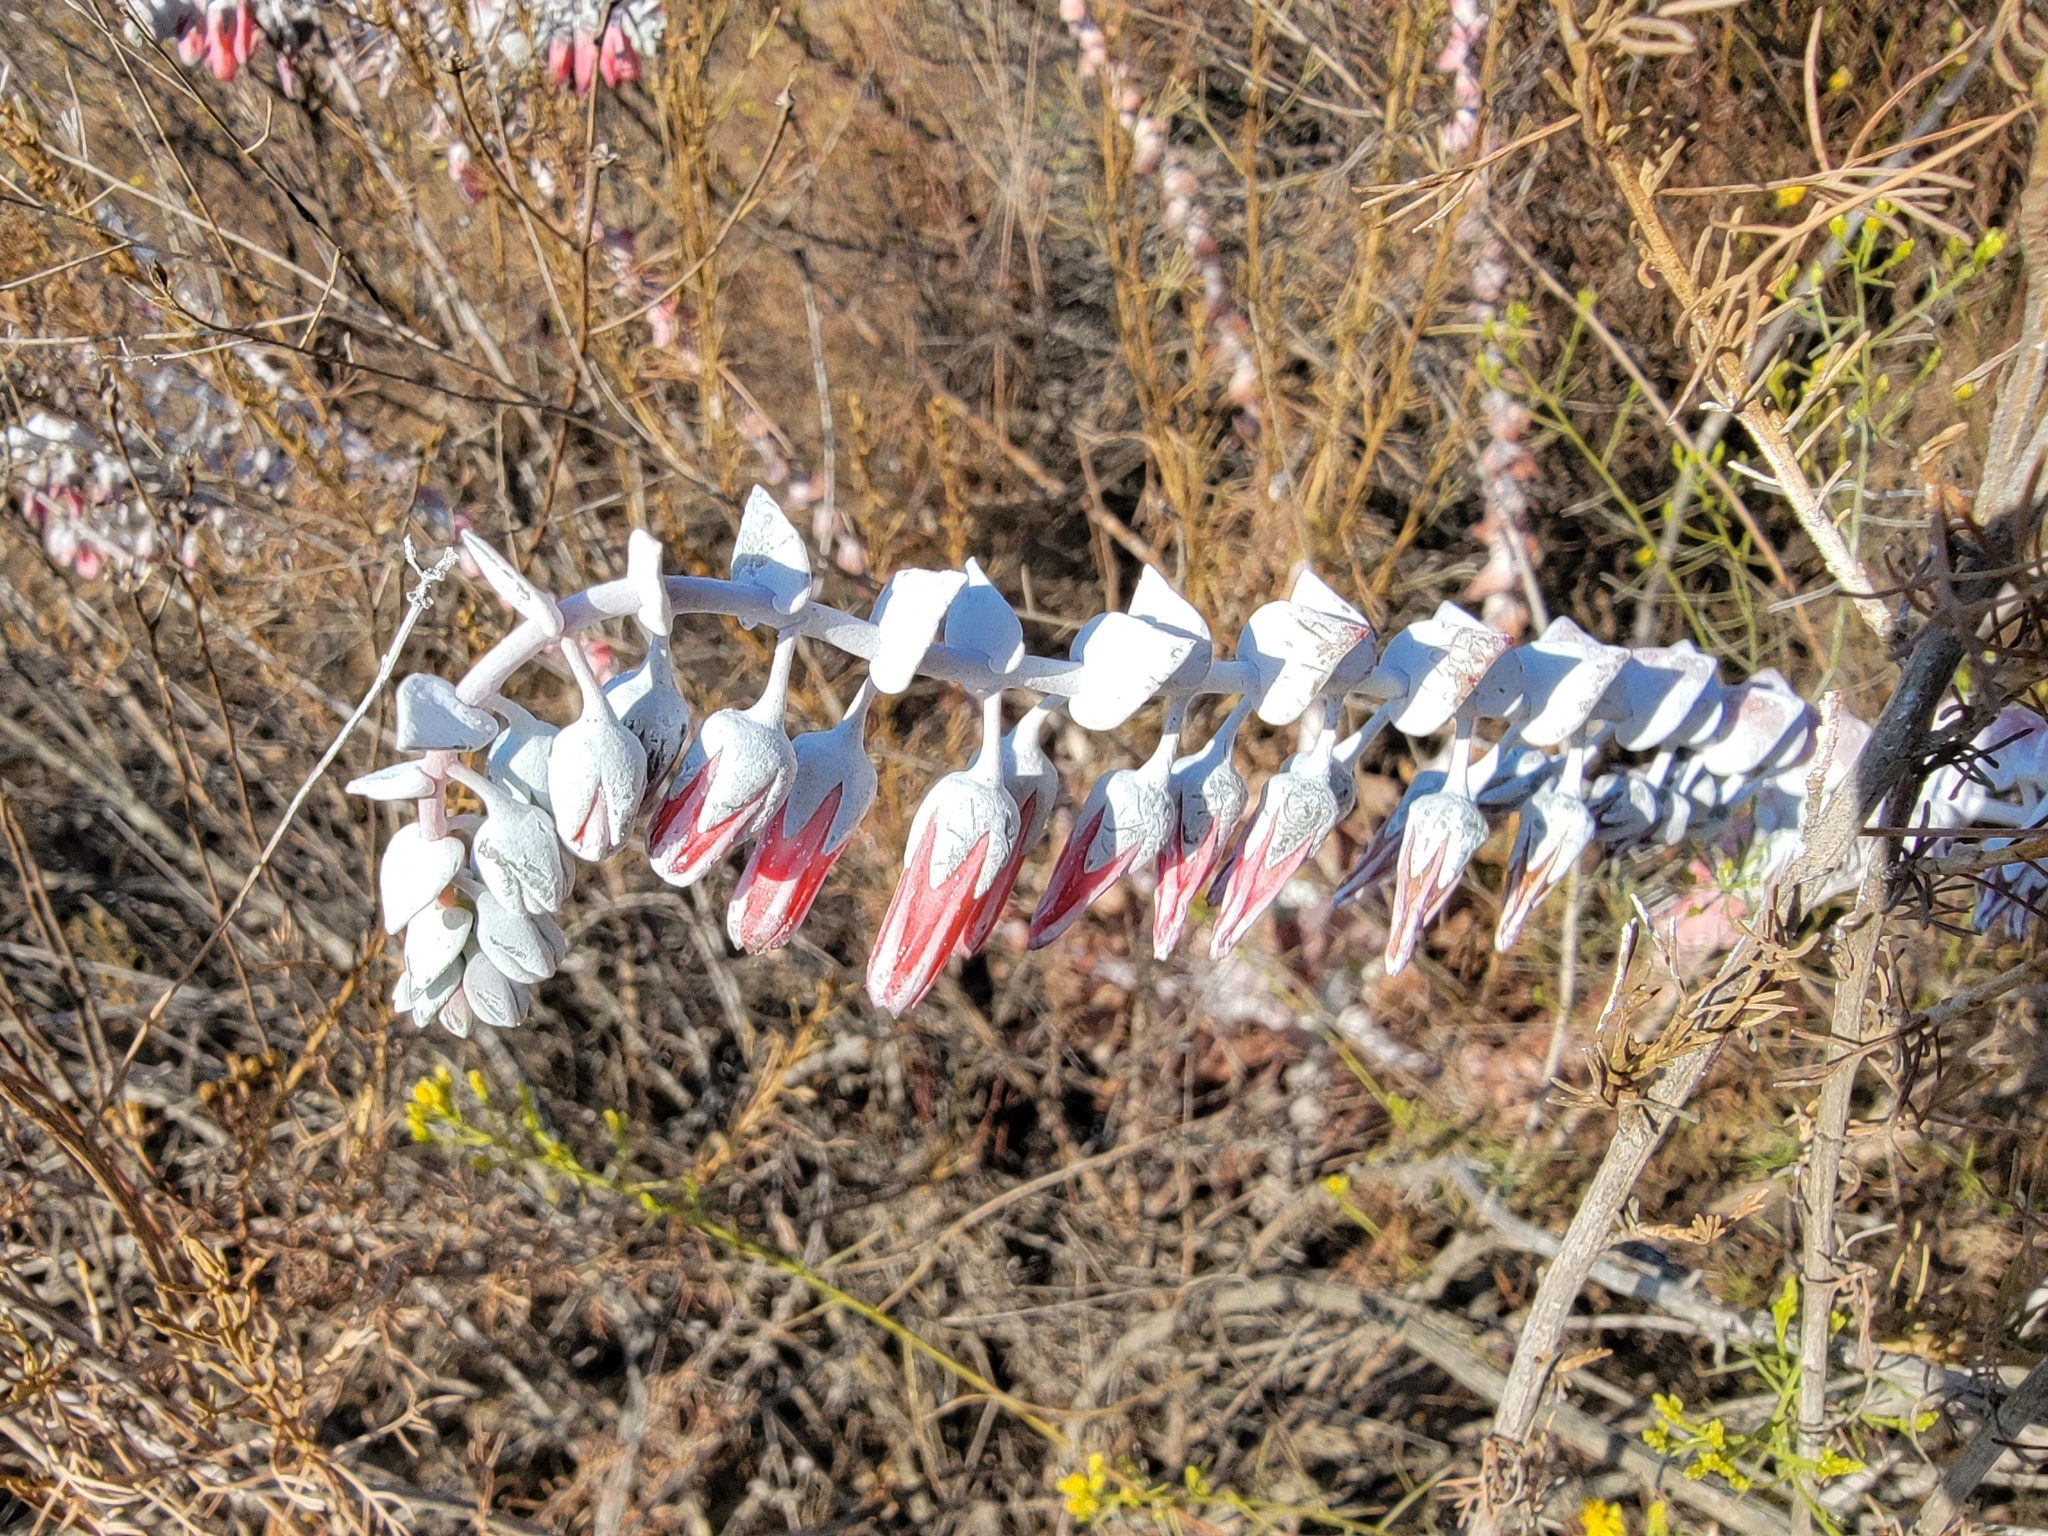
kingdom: Plantae
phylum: Tracheophyta
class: Magnoliopsida
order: Saxifragales
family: Crassulaceae
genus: Dudleya
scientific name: Dudleya pulverulenta
